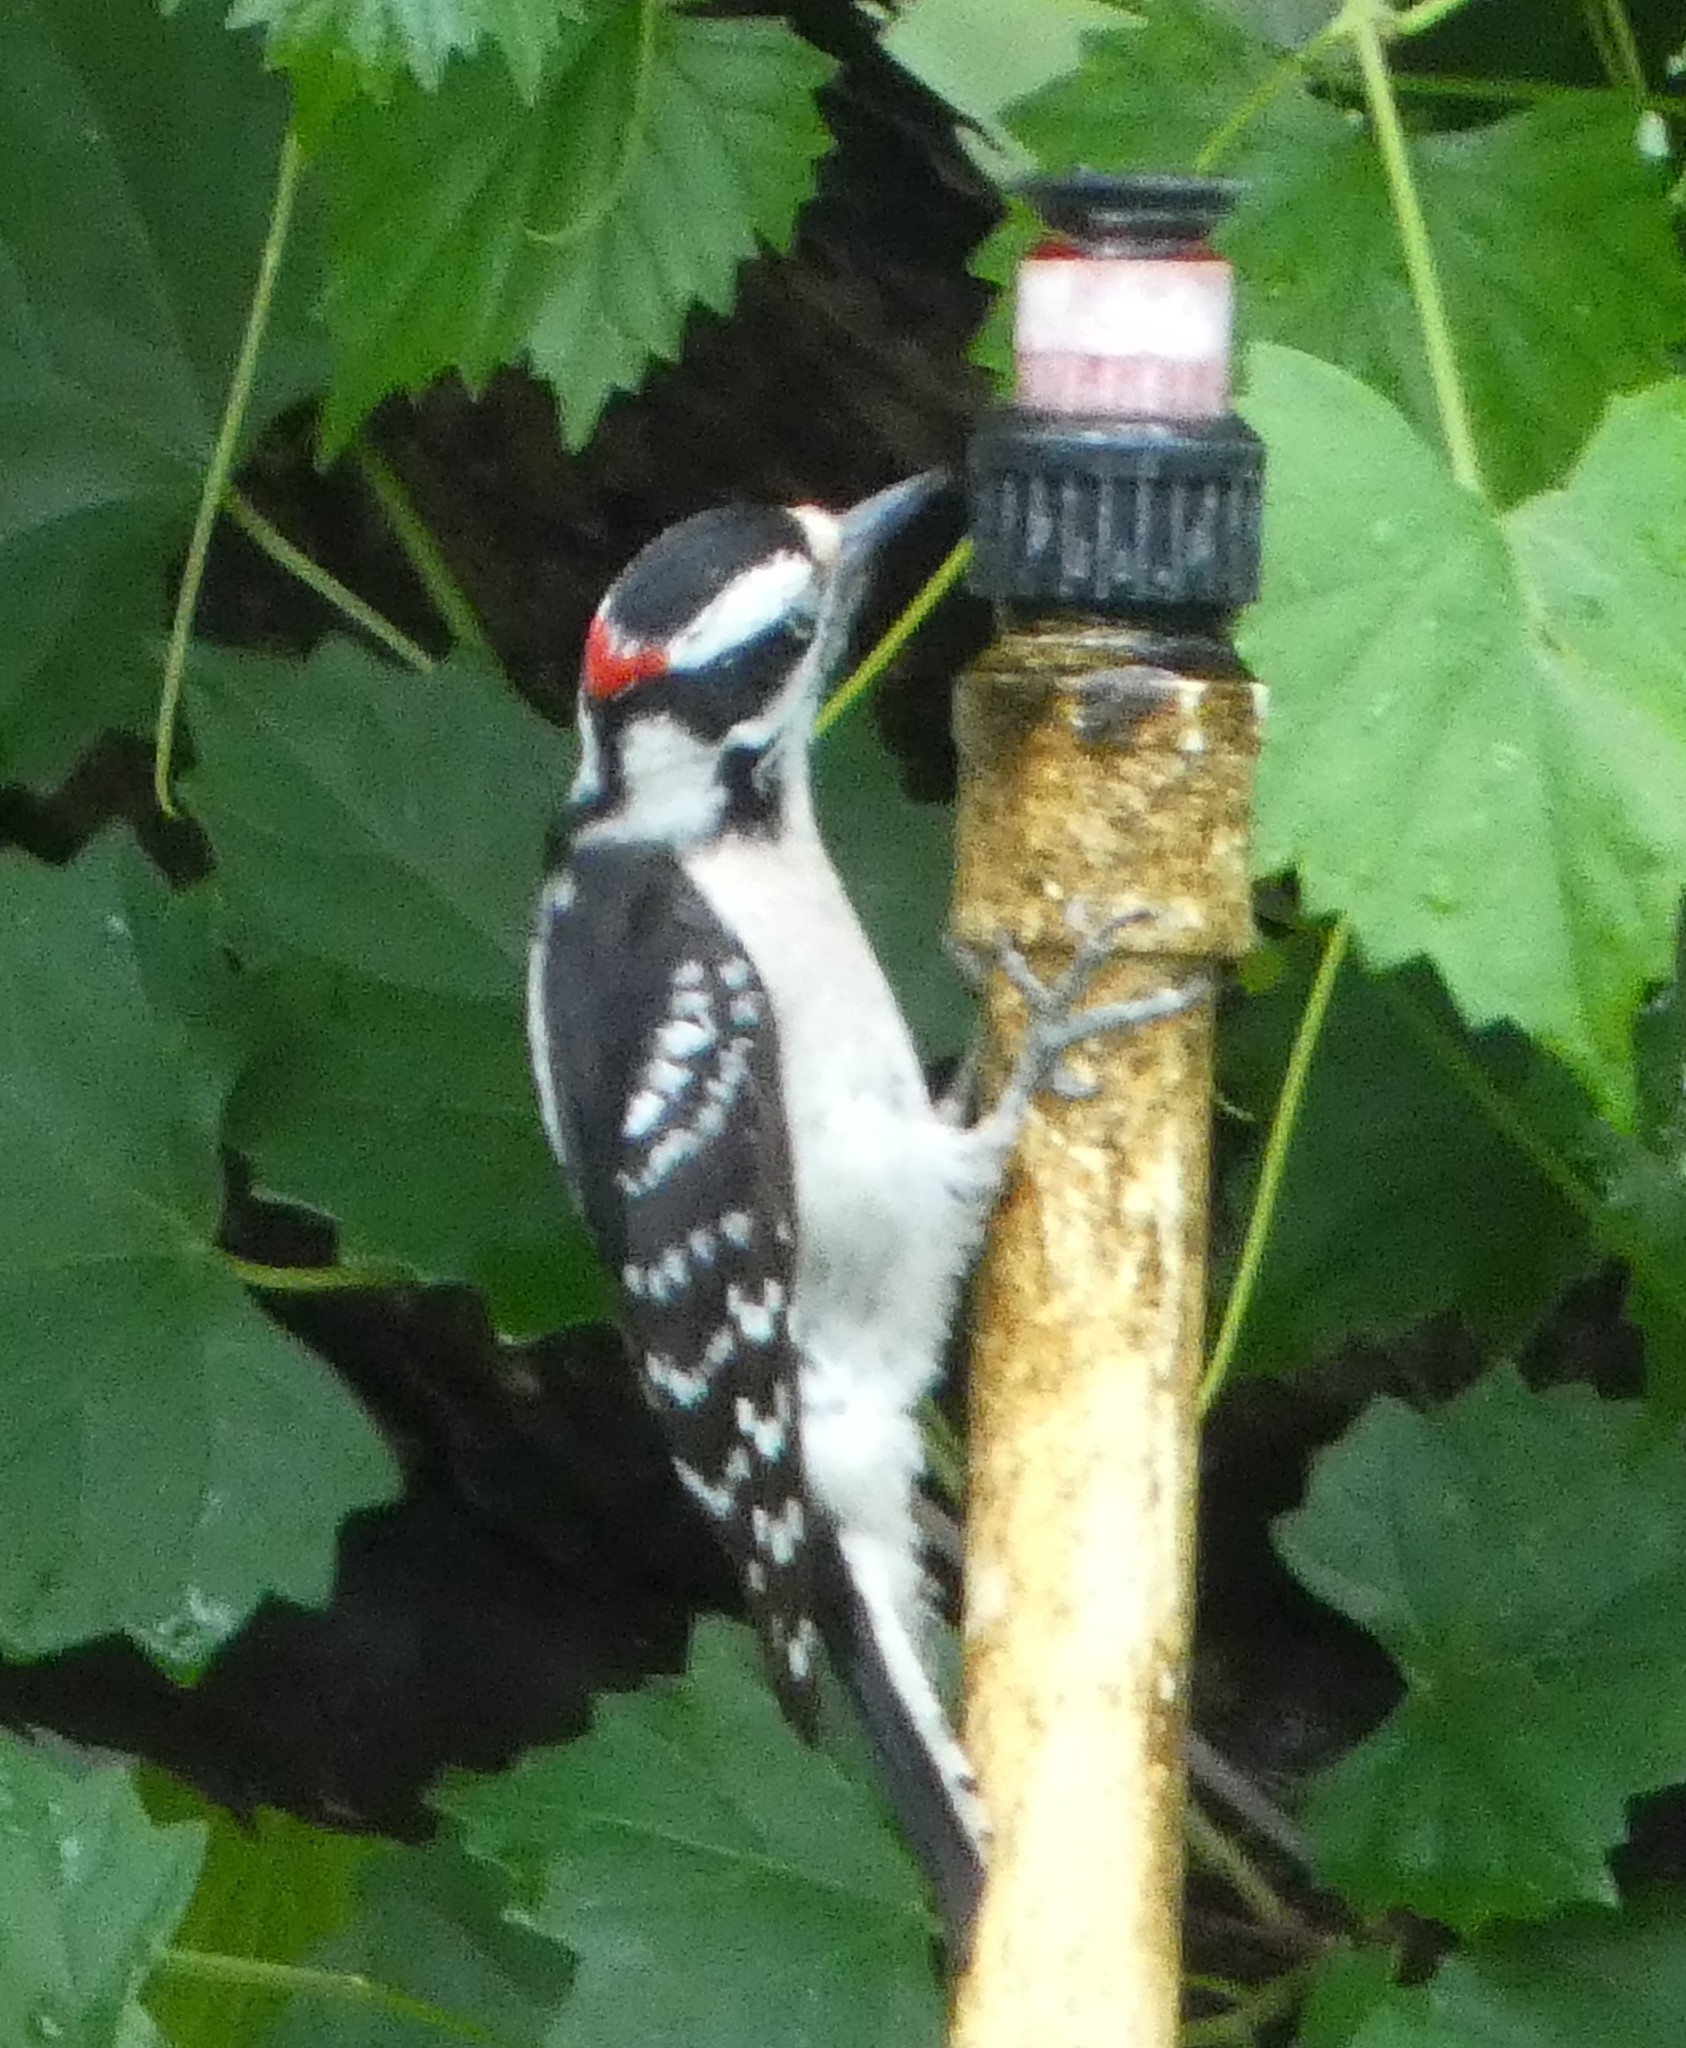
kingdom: Animalia
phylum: Chordata
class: Aves
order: Piciformes
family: Picidae
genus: Dryobates
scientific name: Dryobates pubescens
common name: Downy woodpecker
